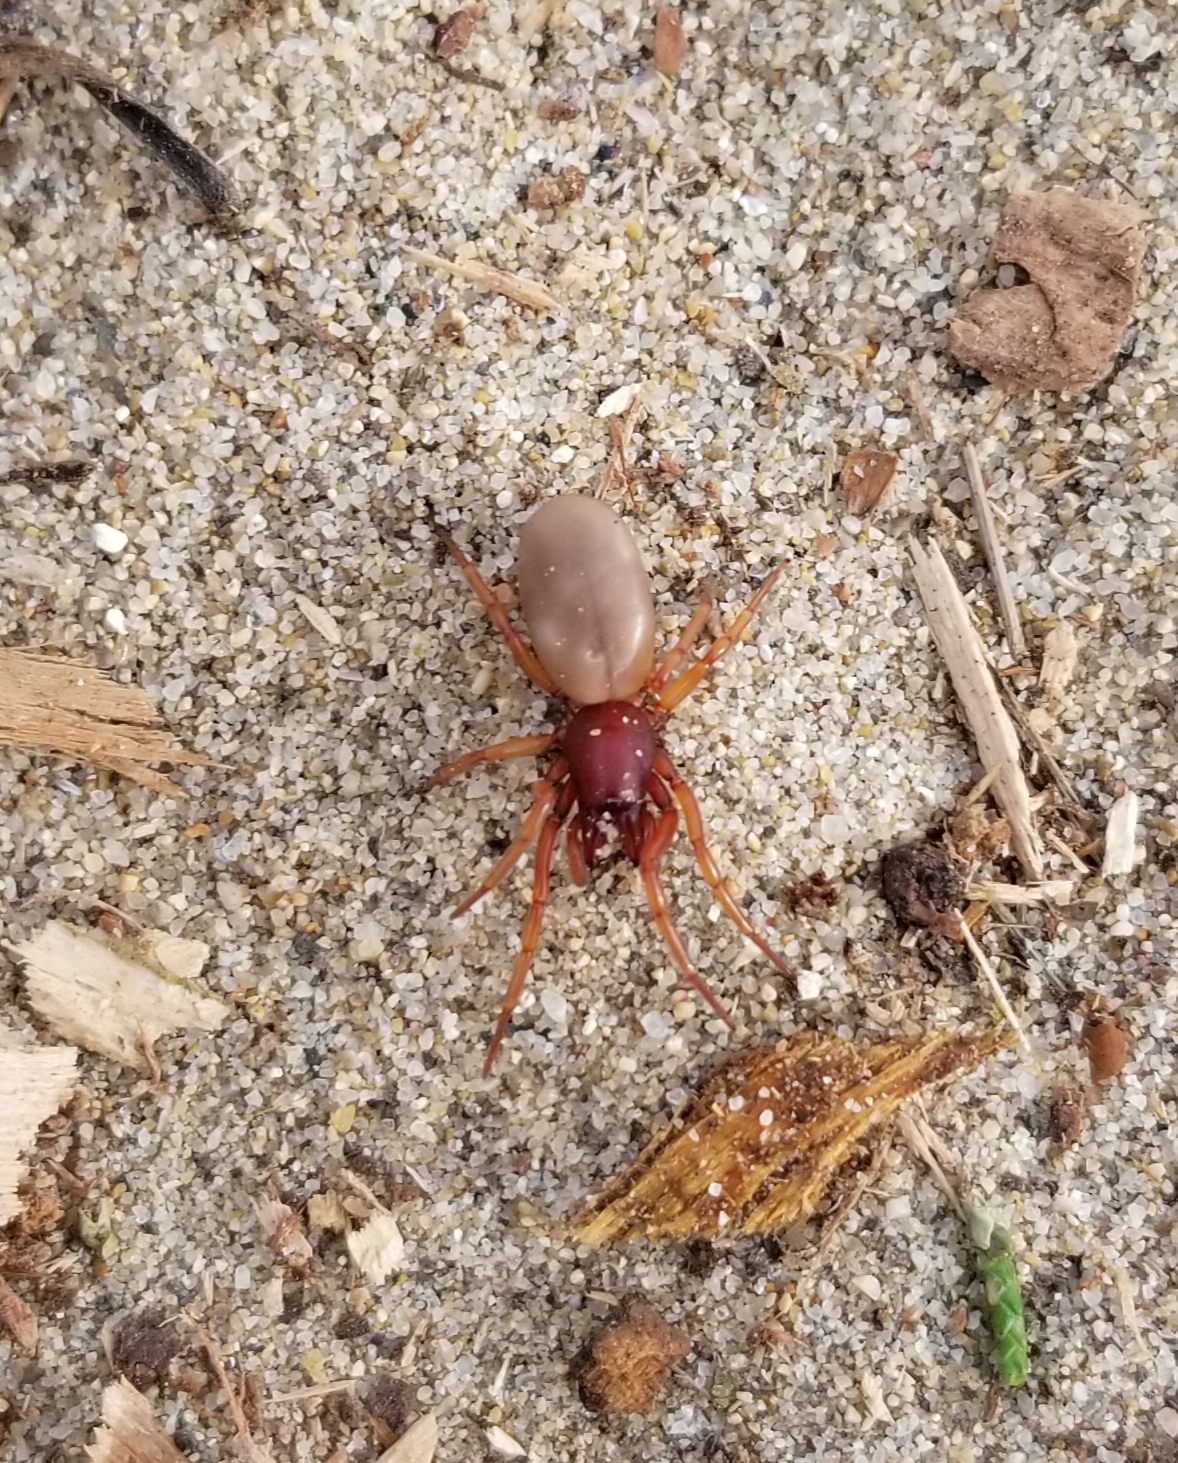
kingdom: Animalia
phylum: Arthropoda
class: Arachnida
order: Araneae
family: Dysderidae
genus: Dysdera
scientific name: Dysdera crocata
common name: Woodlouse spider
